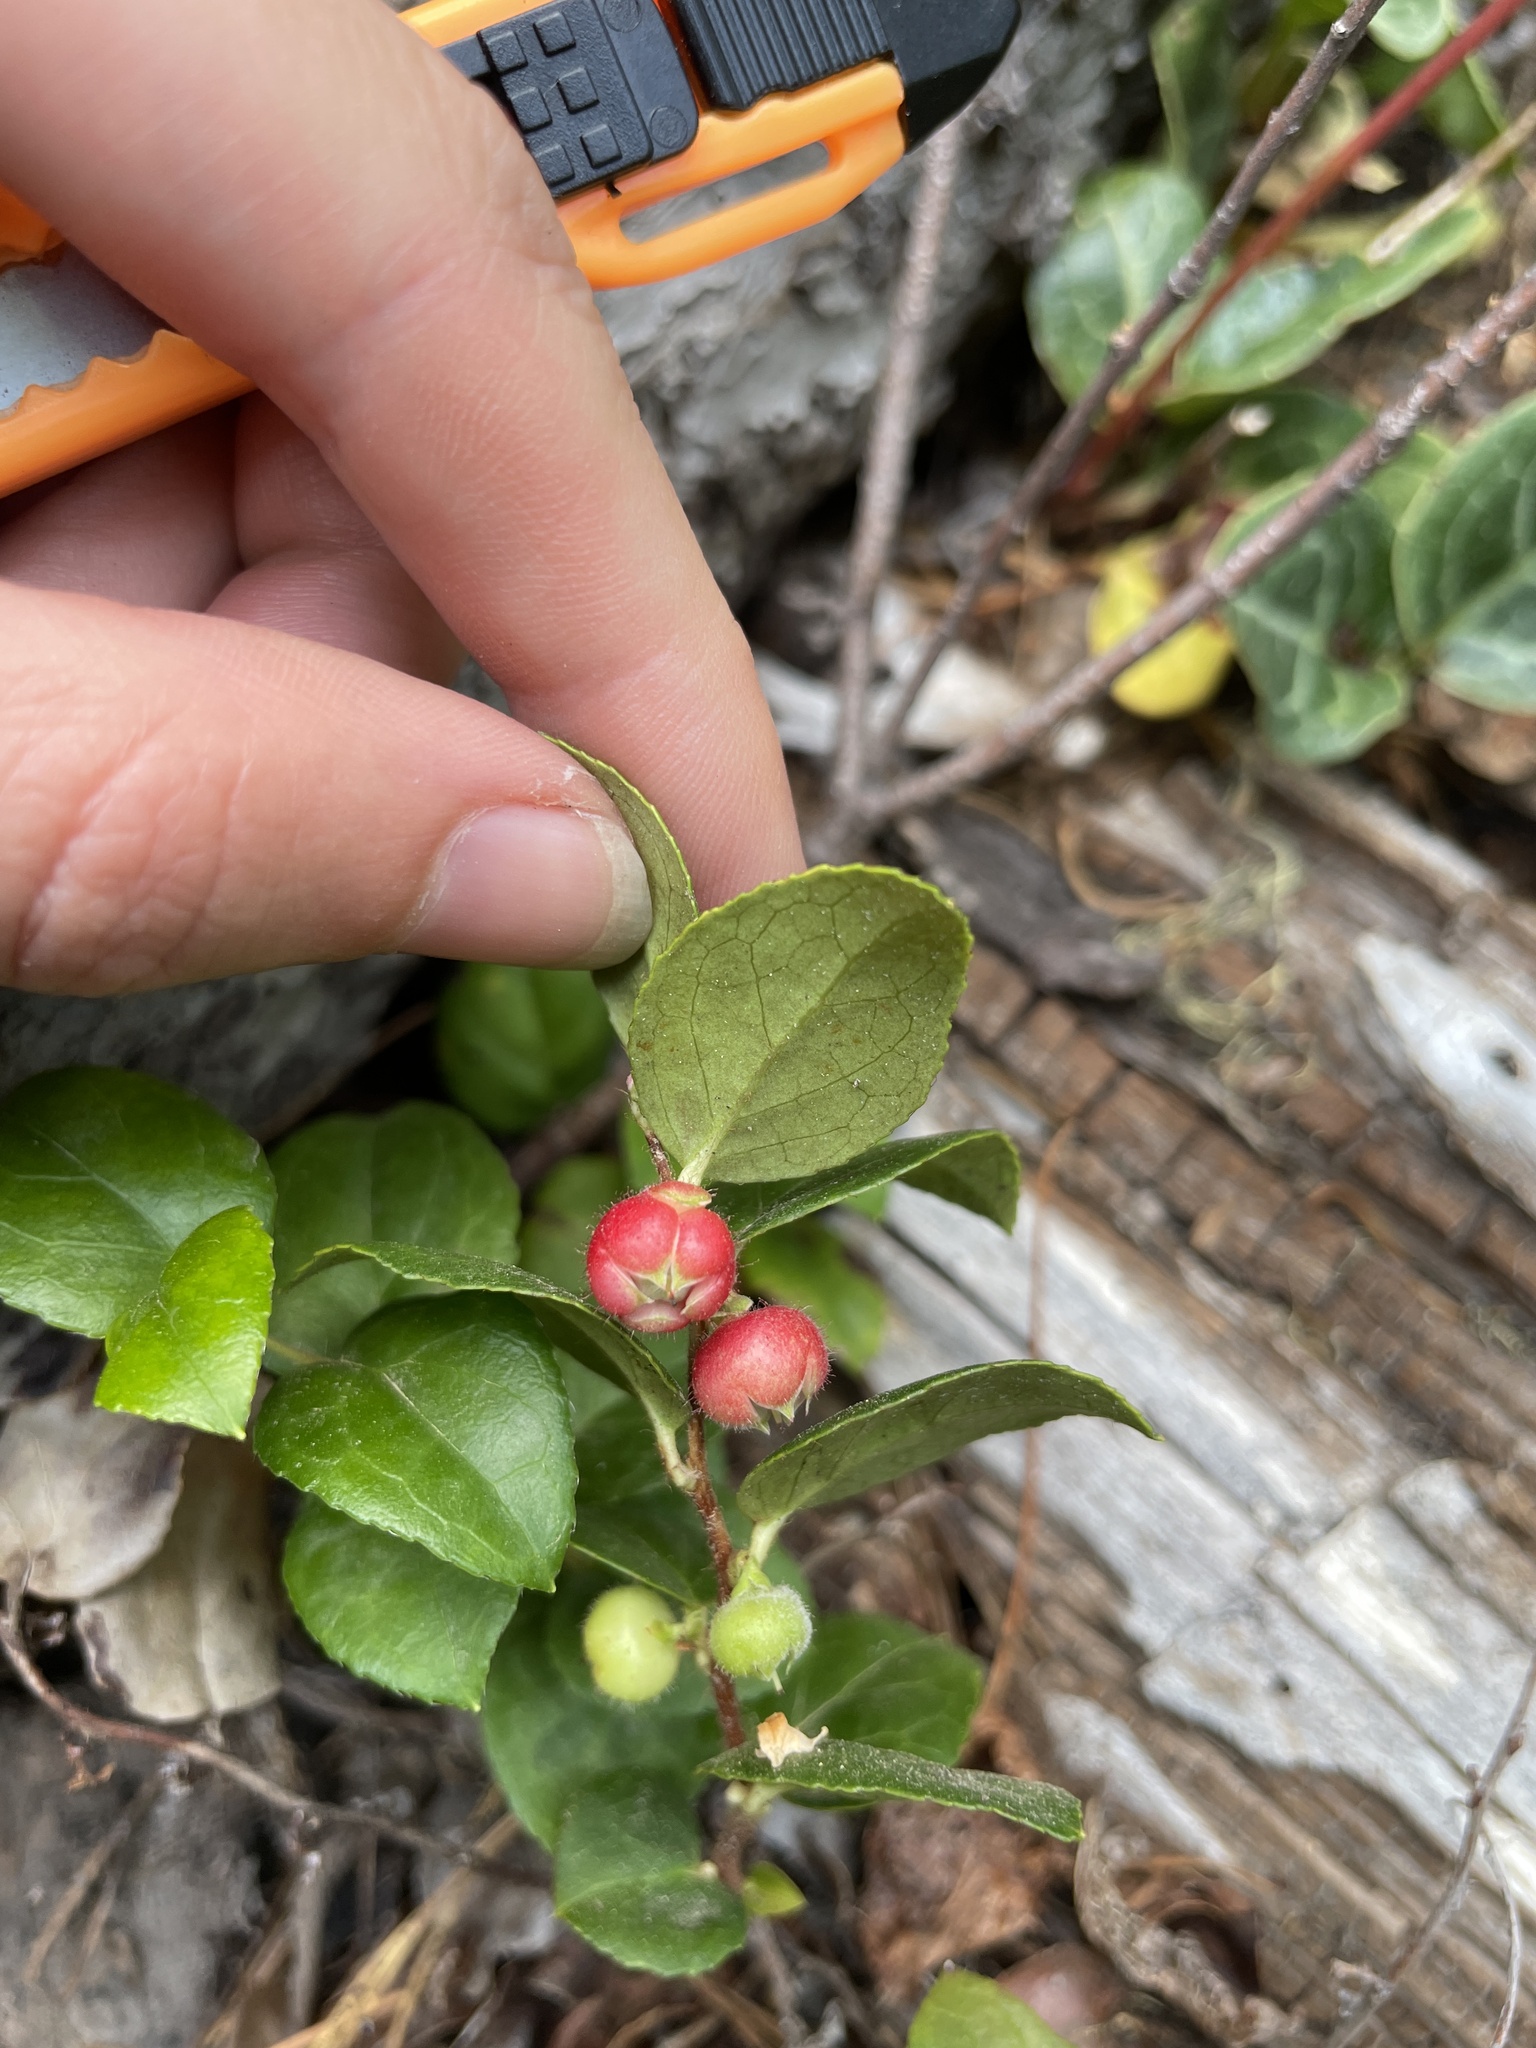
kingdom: Plantae
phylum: Tracheophyta
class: Magnoliopsida
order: Ericales
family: Ericaceae
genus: Gaultheria
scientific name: Gaultheria ovatifolia
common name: Oregon wintergreen
